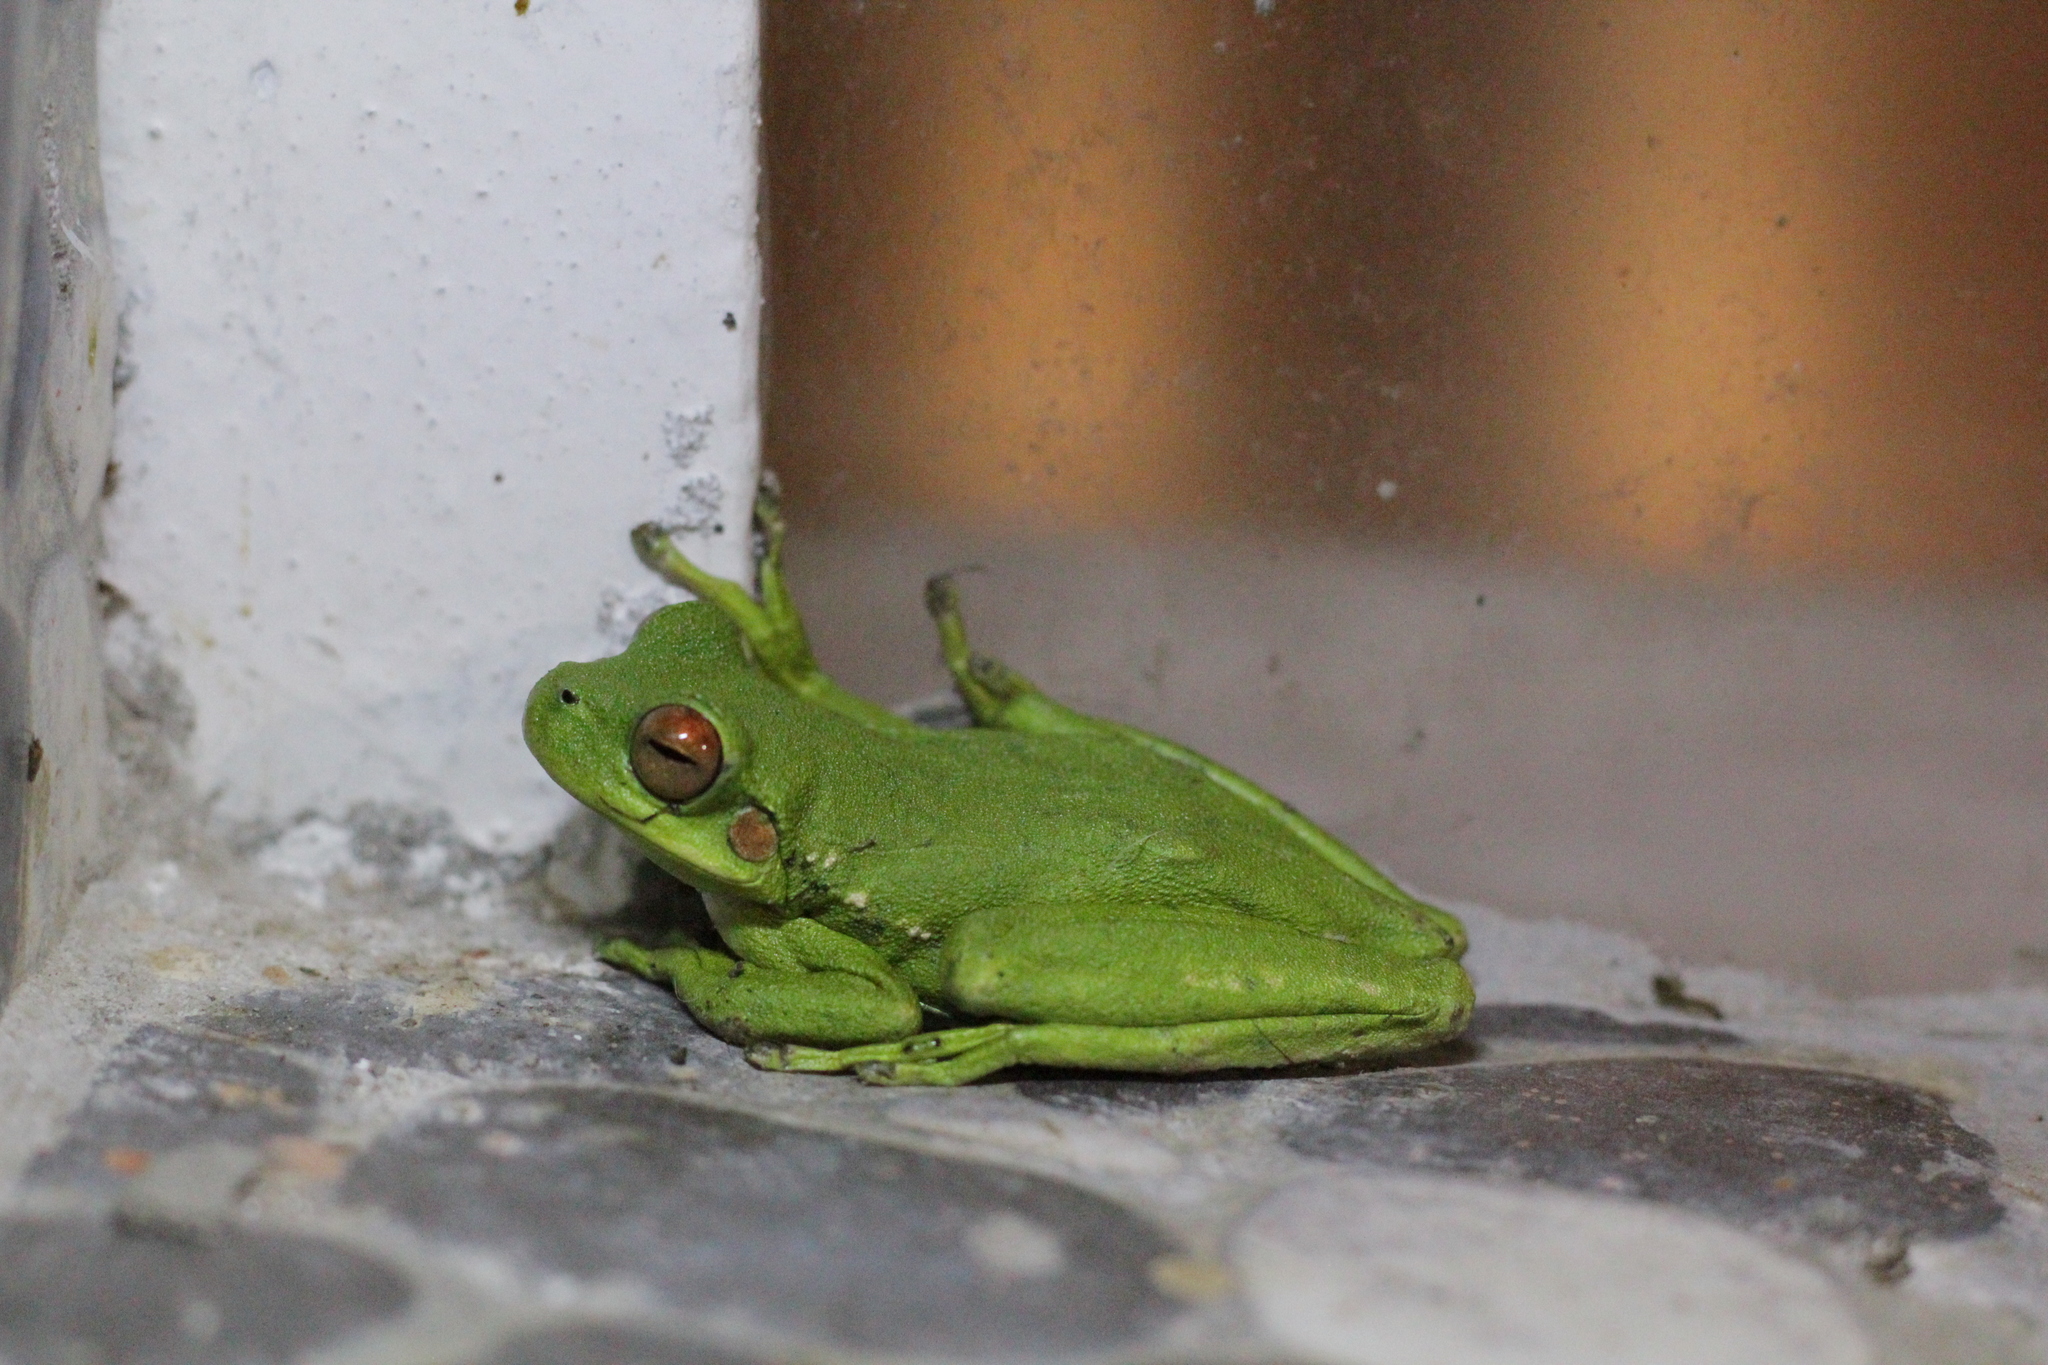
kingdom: Animalia
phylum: Chordata
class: Amphibia
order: Anura
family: Hylidae
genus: Boana
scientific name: Boana riojana
